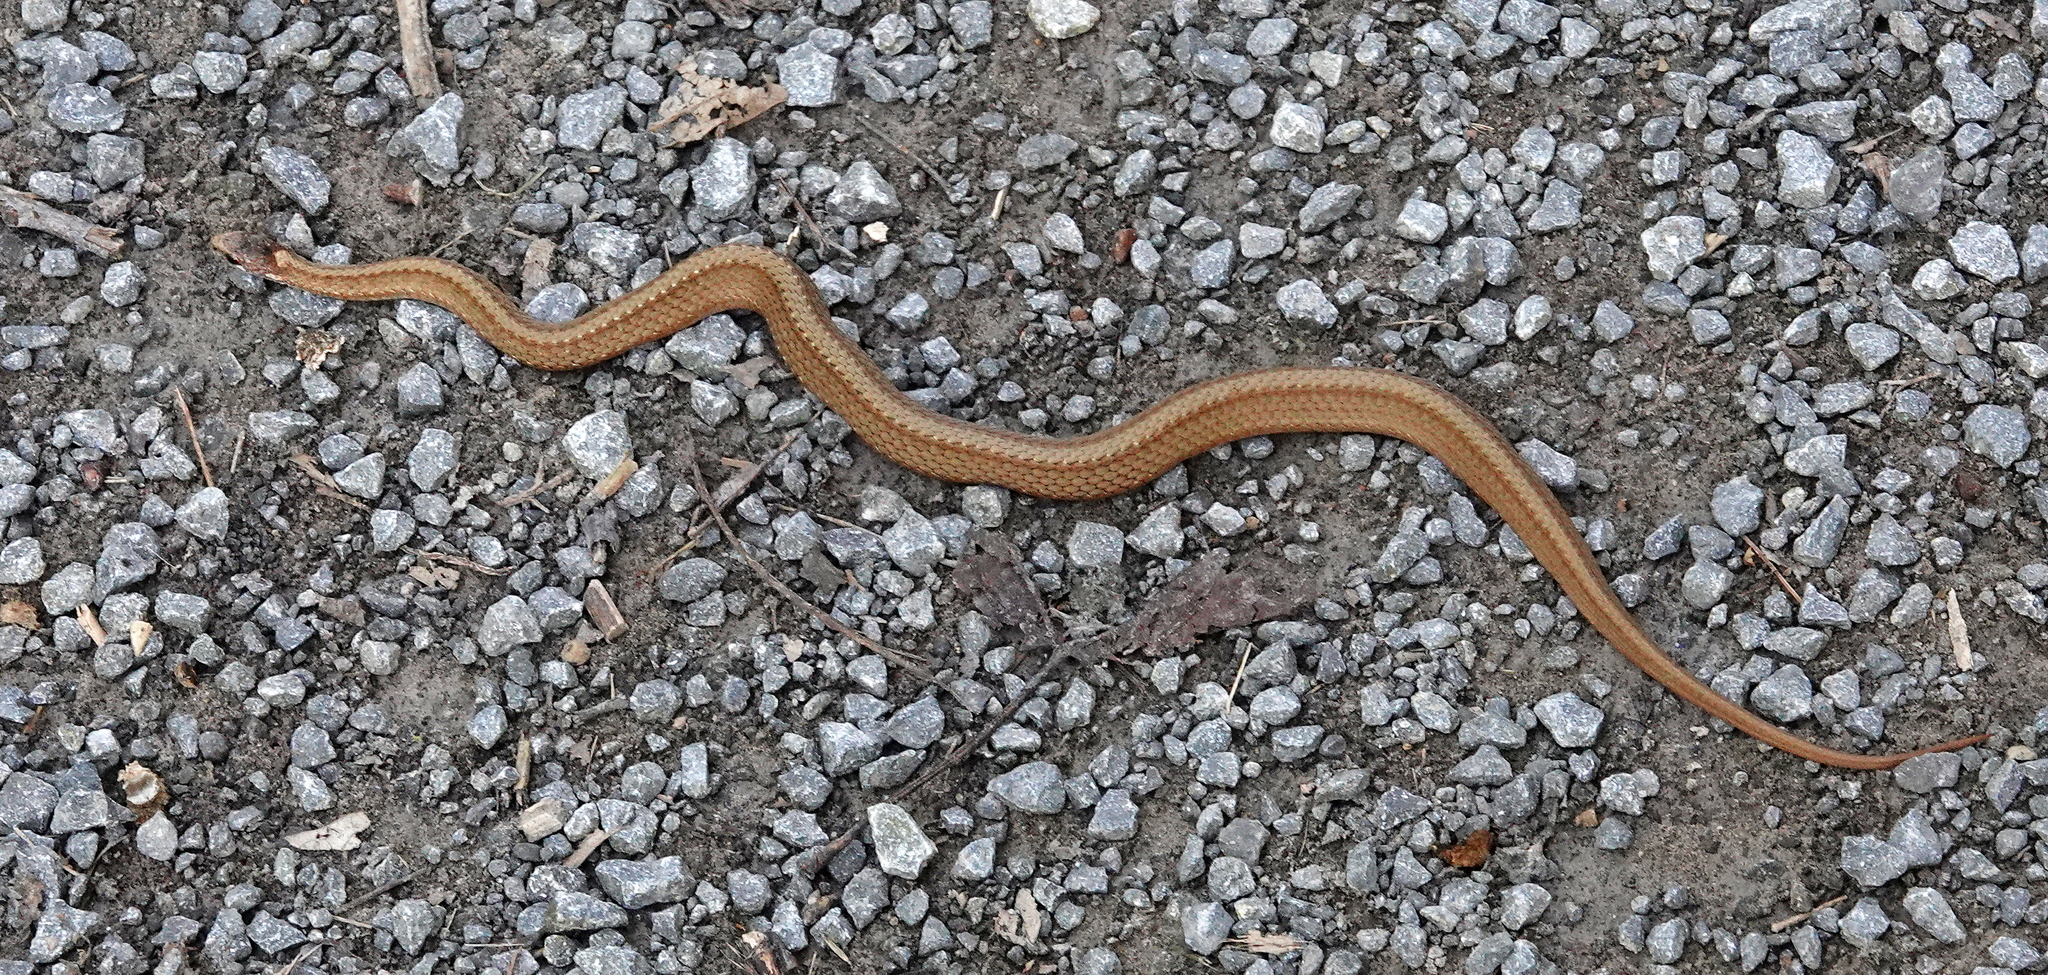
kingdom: Animalia
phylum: Chordata
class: Squamata
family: Colubridae
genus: Storeria
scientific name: Storeria occipitomaculata
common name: Redbelly snake
